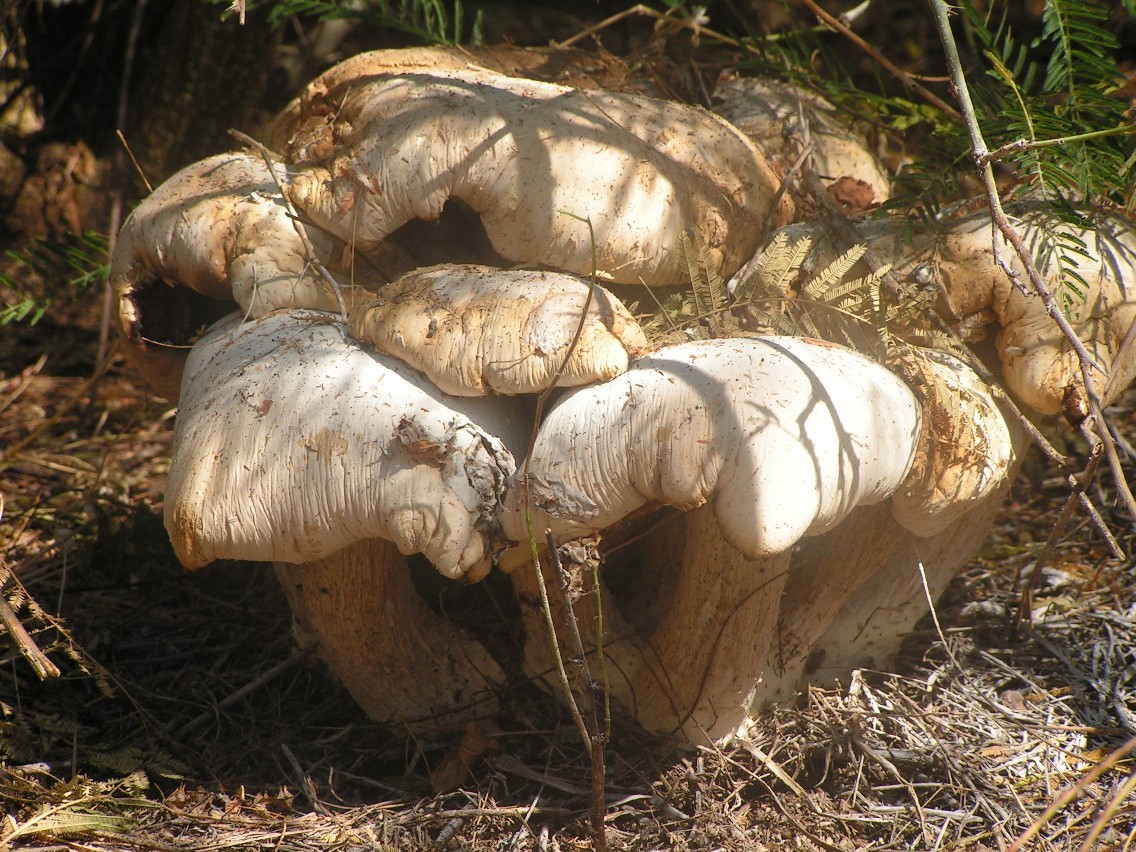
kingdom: Fungi
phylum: Basidiomycota
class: Agaricomycetes
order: Agaricales
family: Callistosporiaceae
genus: Macrocybe
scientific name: Macrocybe
